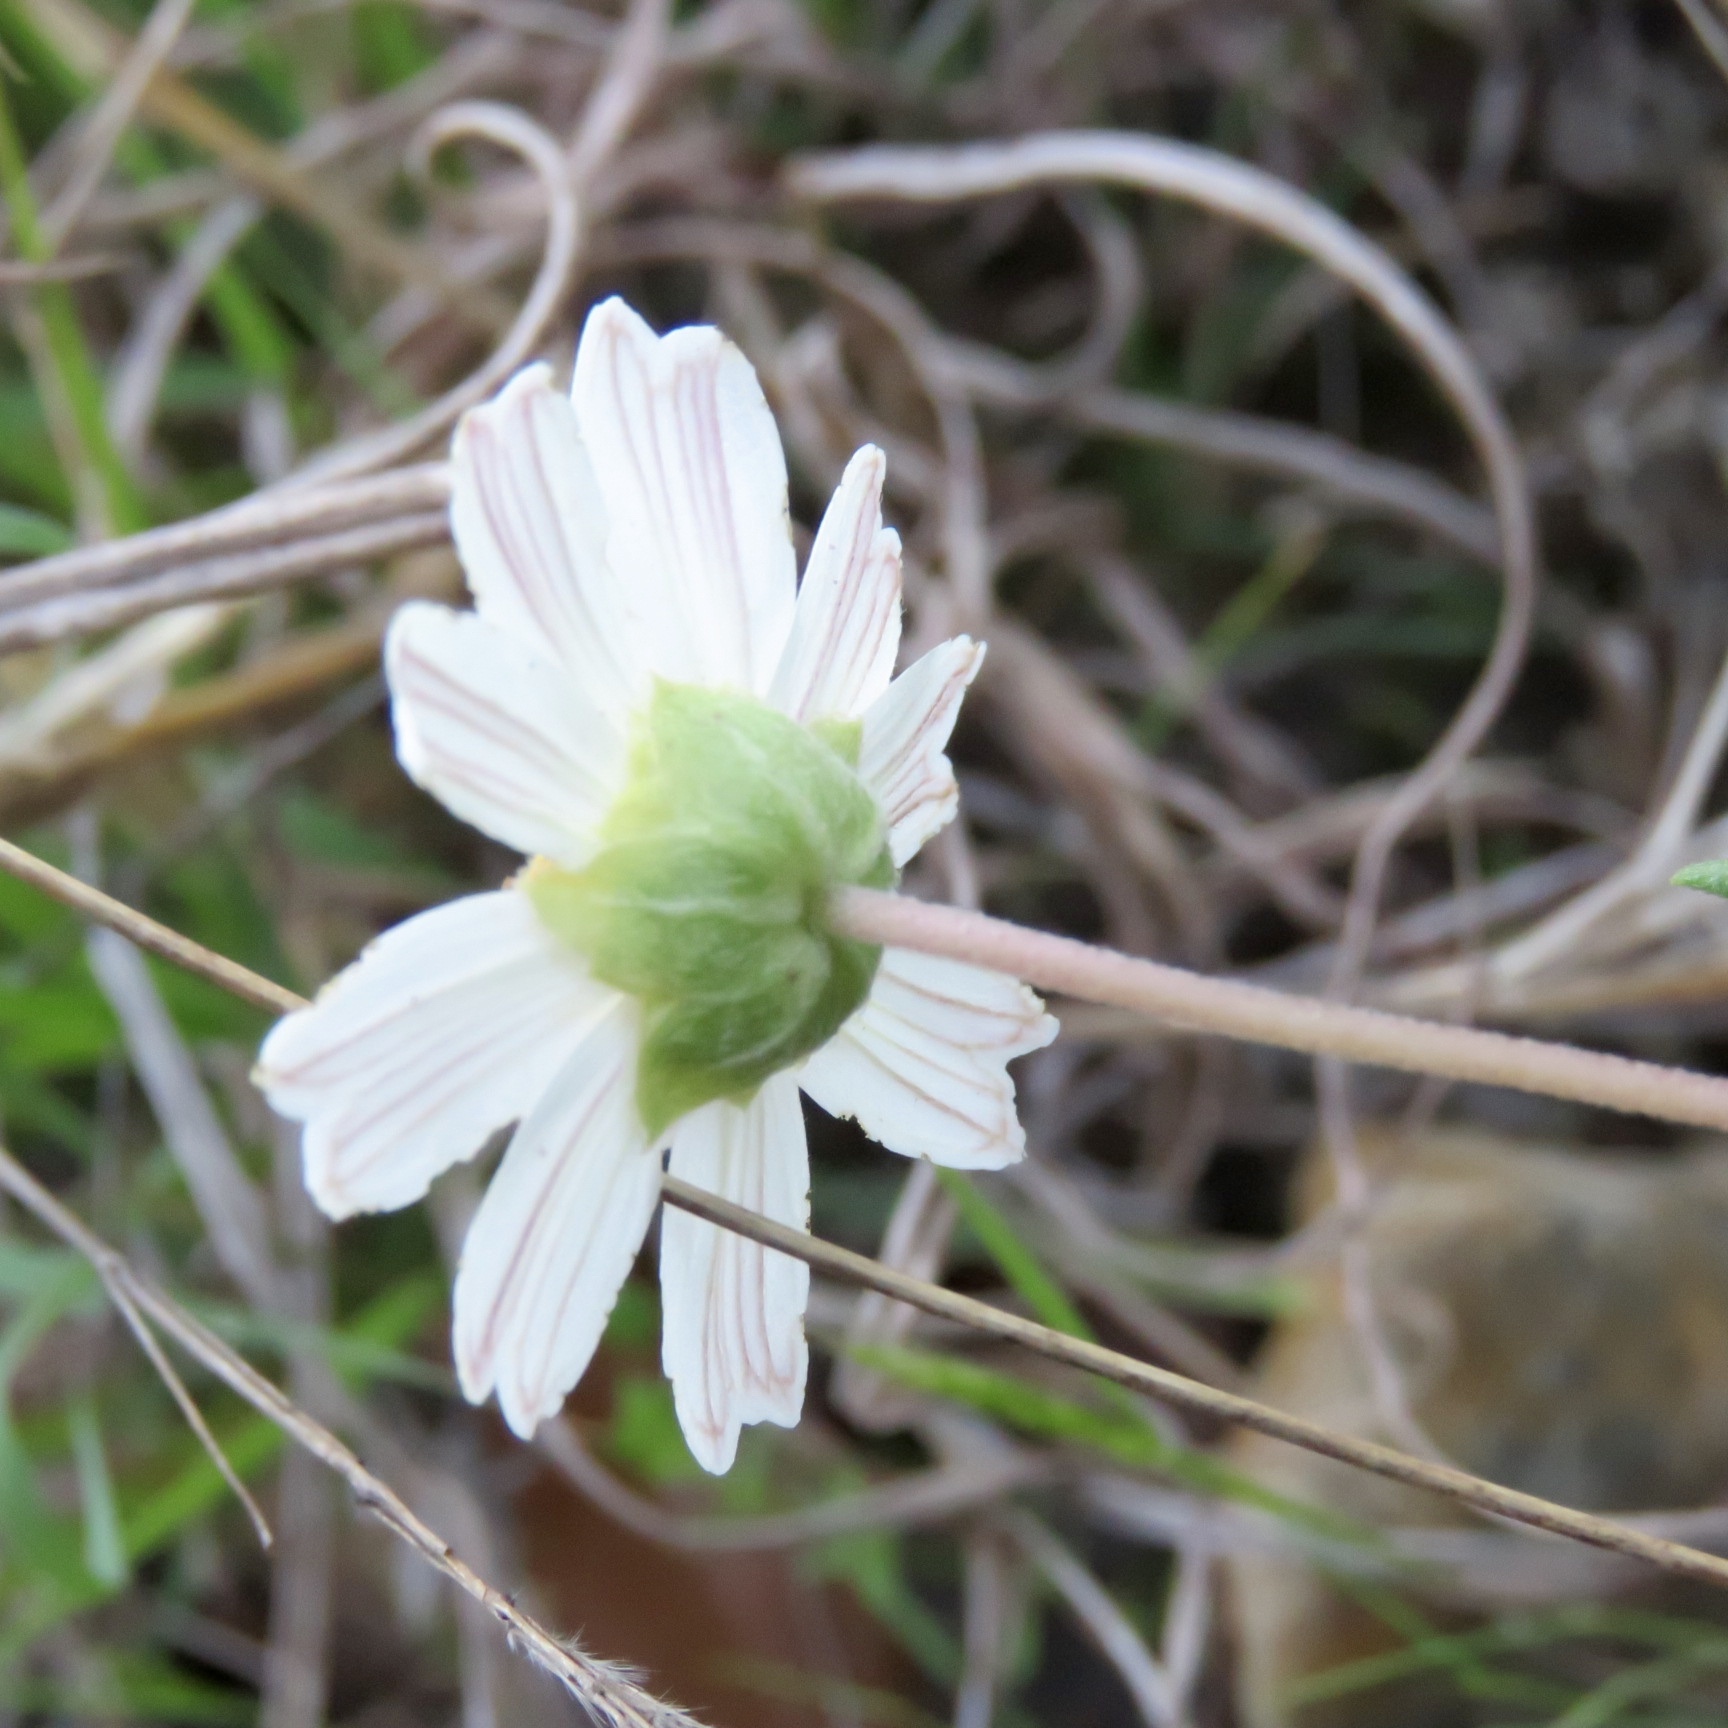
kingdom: Plantae
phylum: Tracheophyta
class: Magnoliopsida
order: Asterales
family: Asteraceae
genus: Melampodium
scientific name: Melampodium leucanthum
